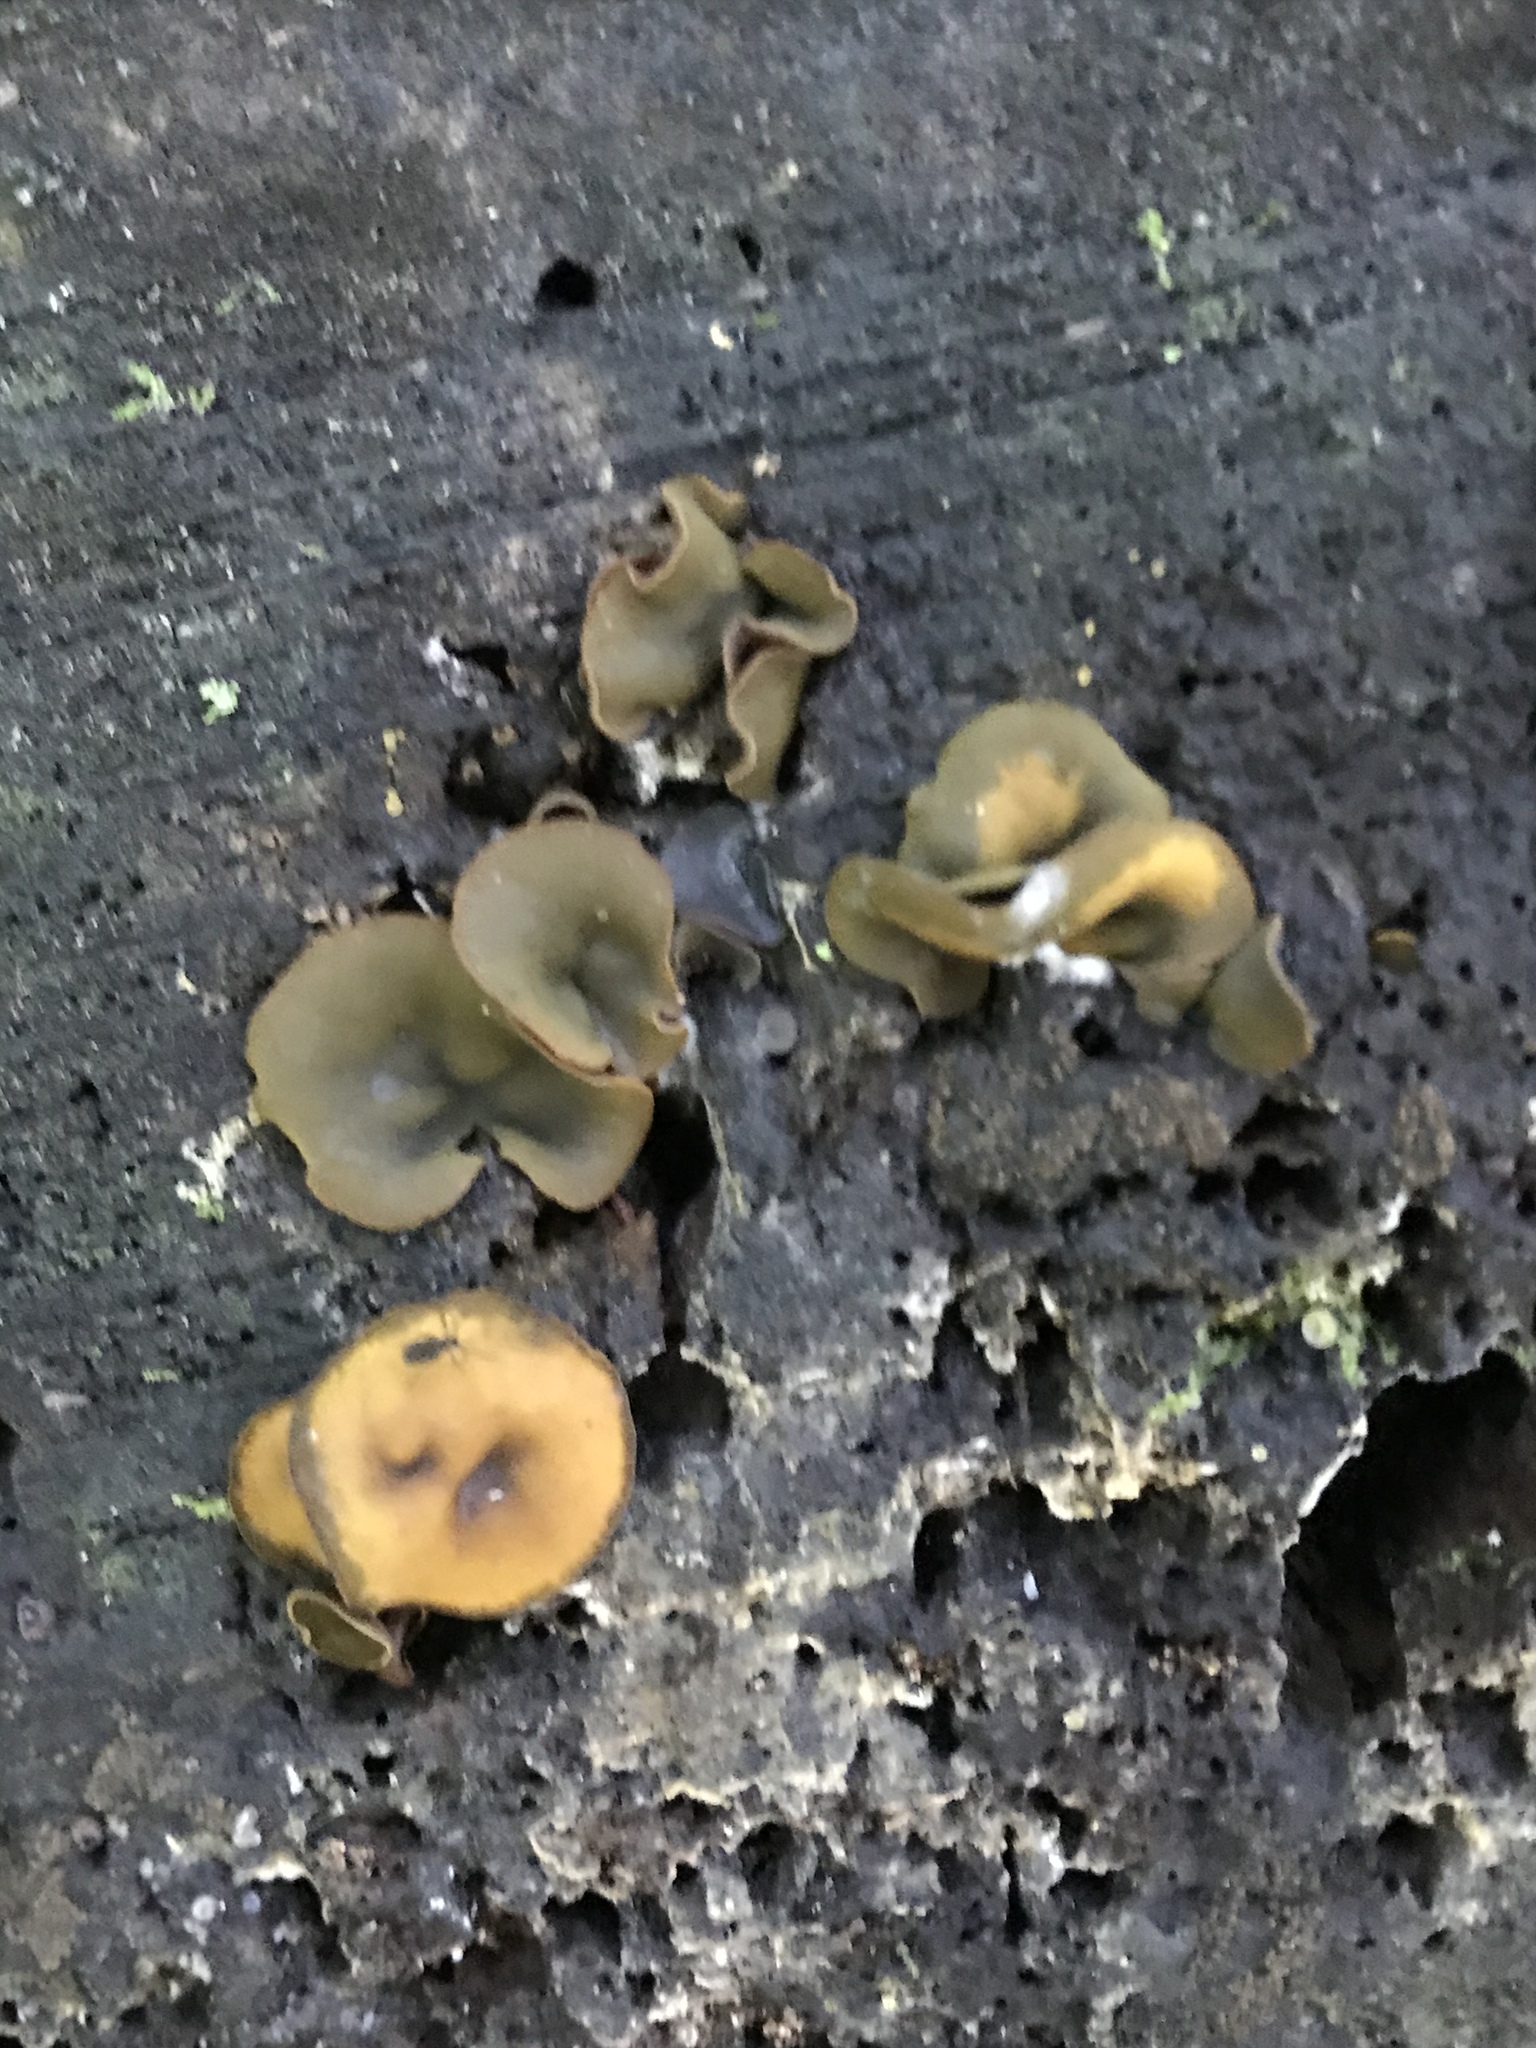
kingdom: Fungi
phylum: Ascomycota
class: Leotiomycetes
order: Helotiales
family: Cenangiaceae
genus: Chlorencoelia
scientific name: Chlorencoelia
